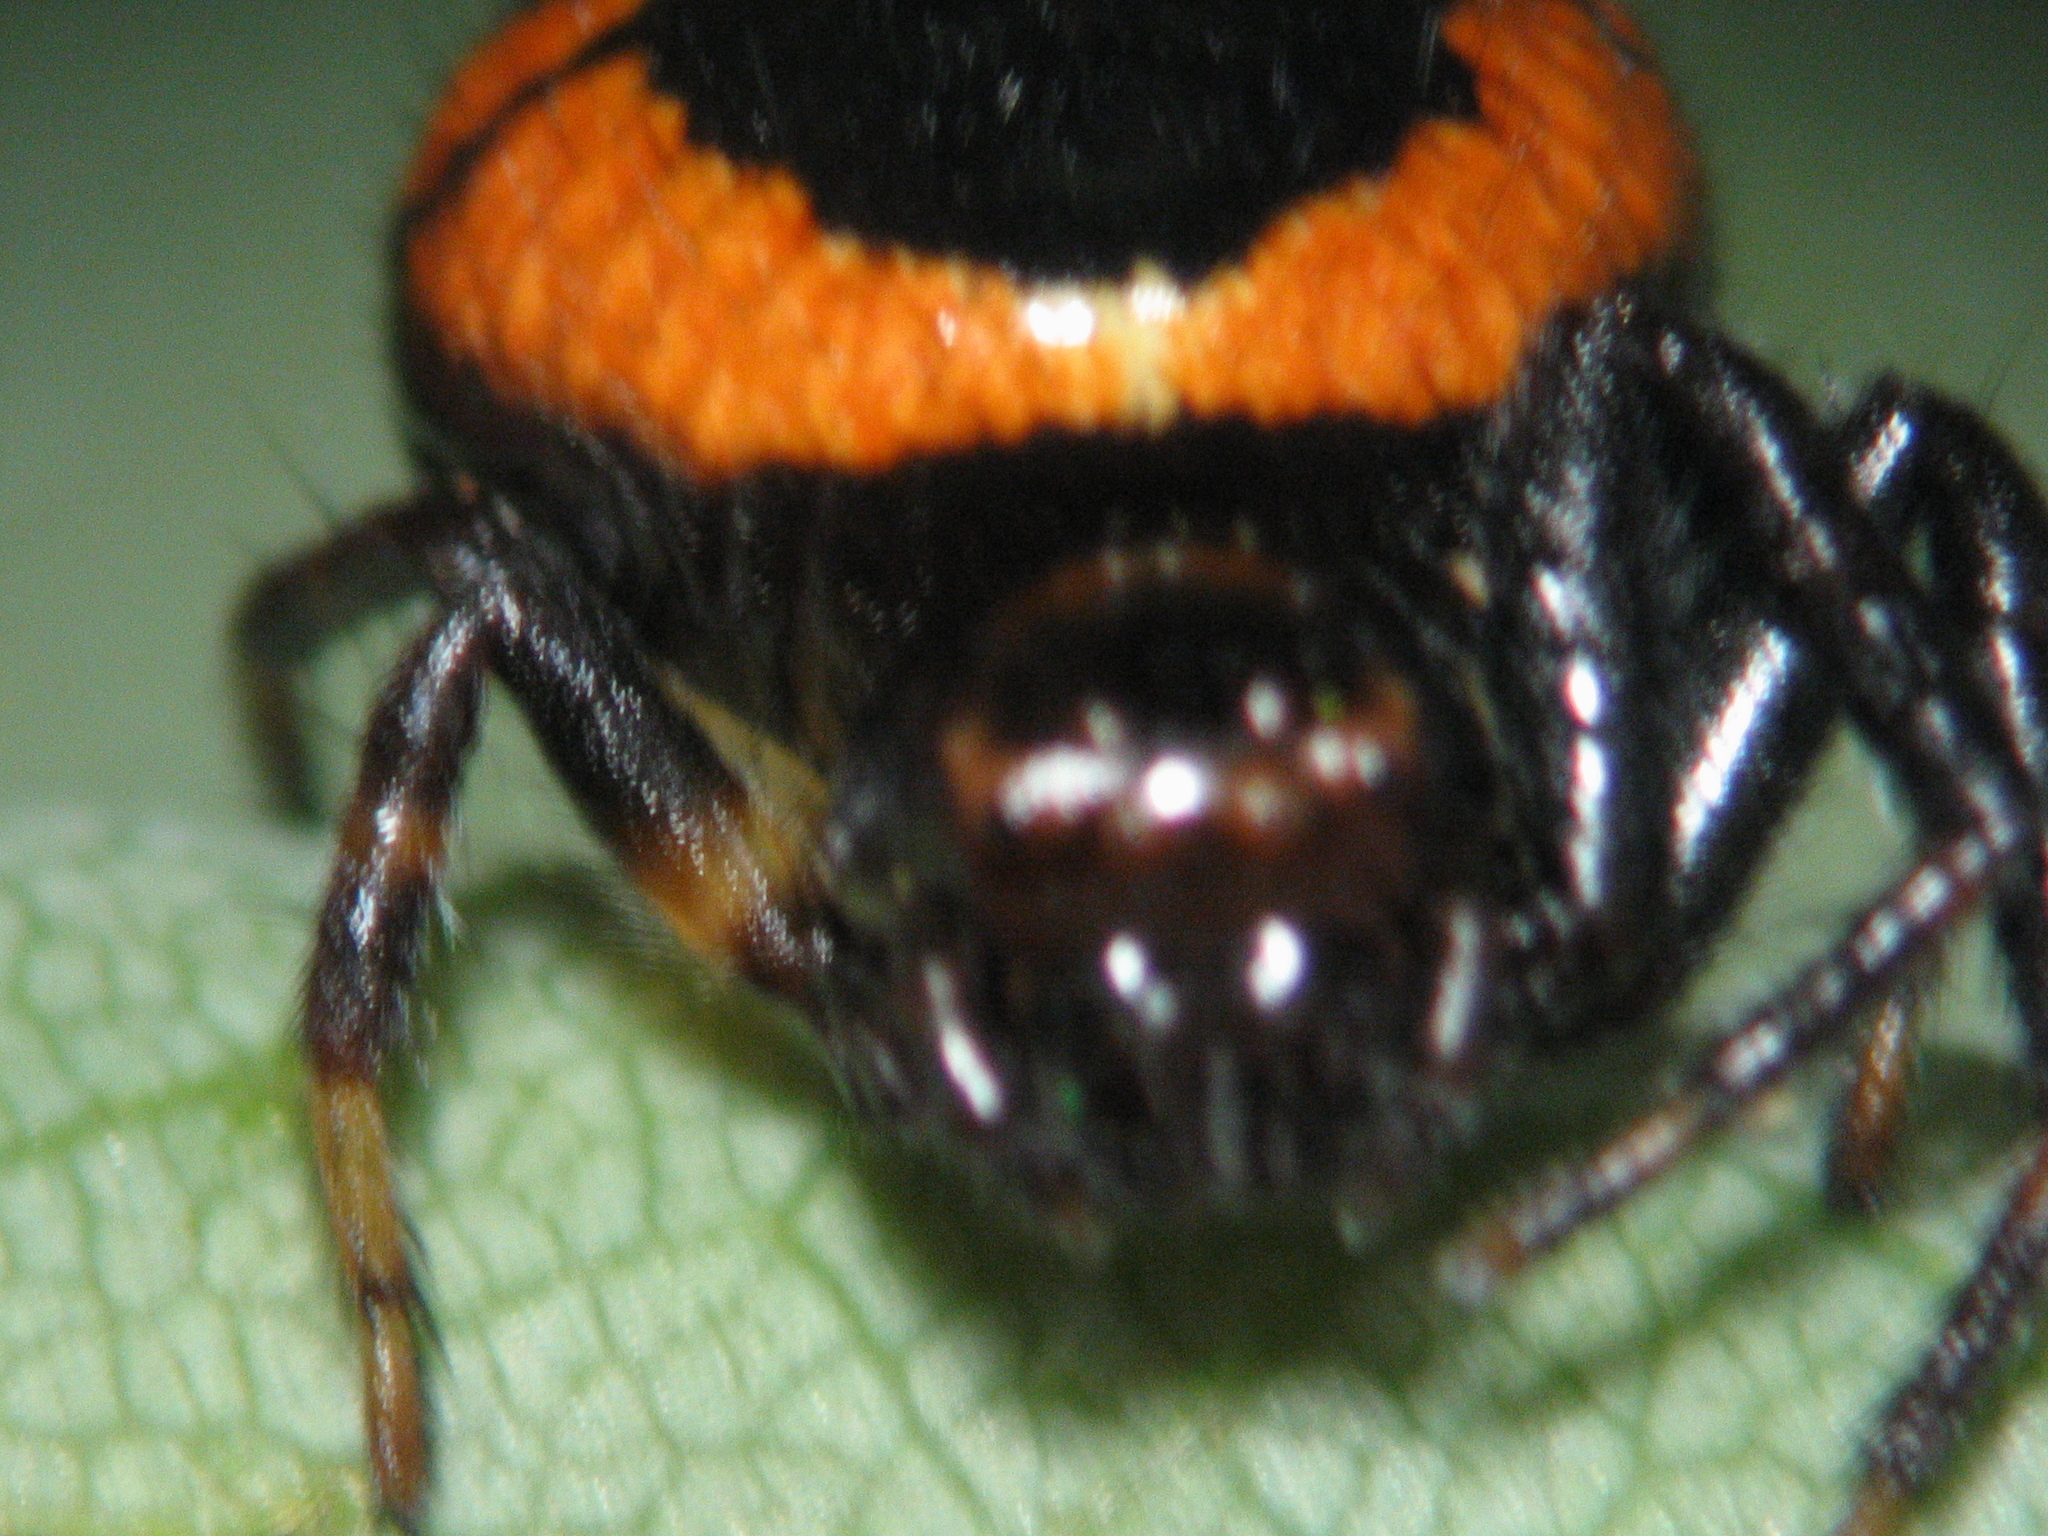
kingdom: Animalia
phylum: Arthropoda
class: Arachnida
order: Araneae
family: Thomisidae
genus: Synema
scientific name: Synema globosum
